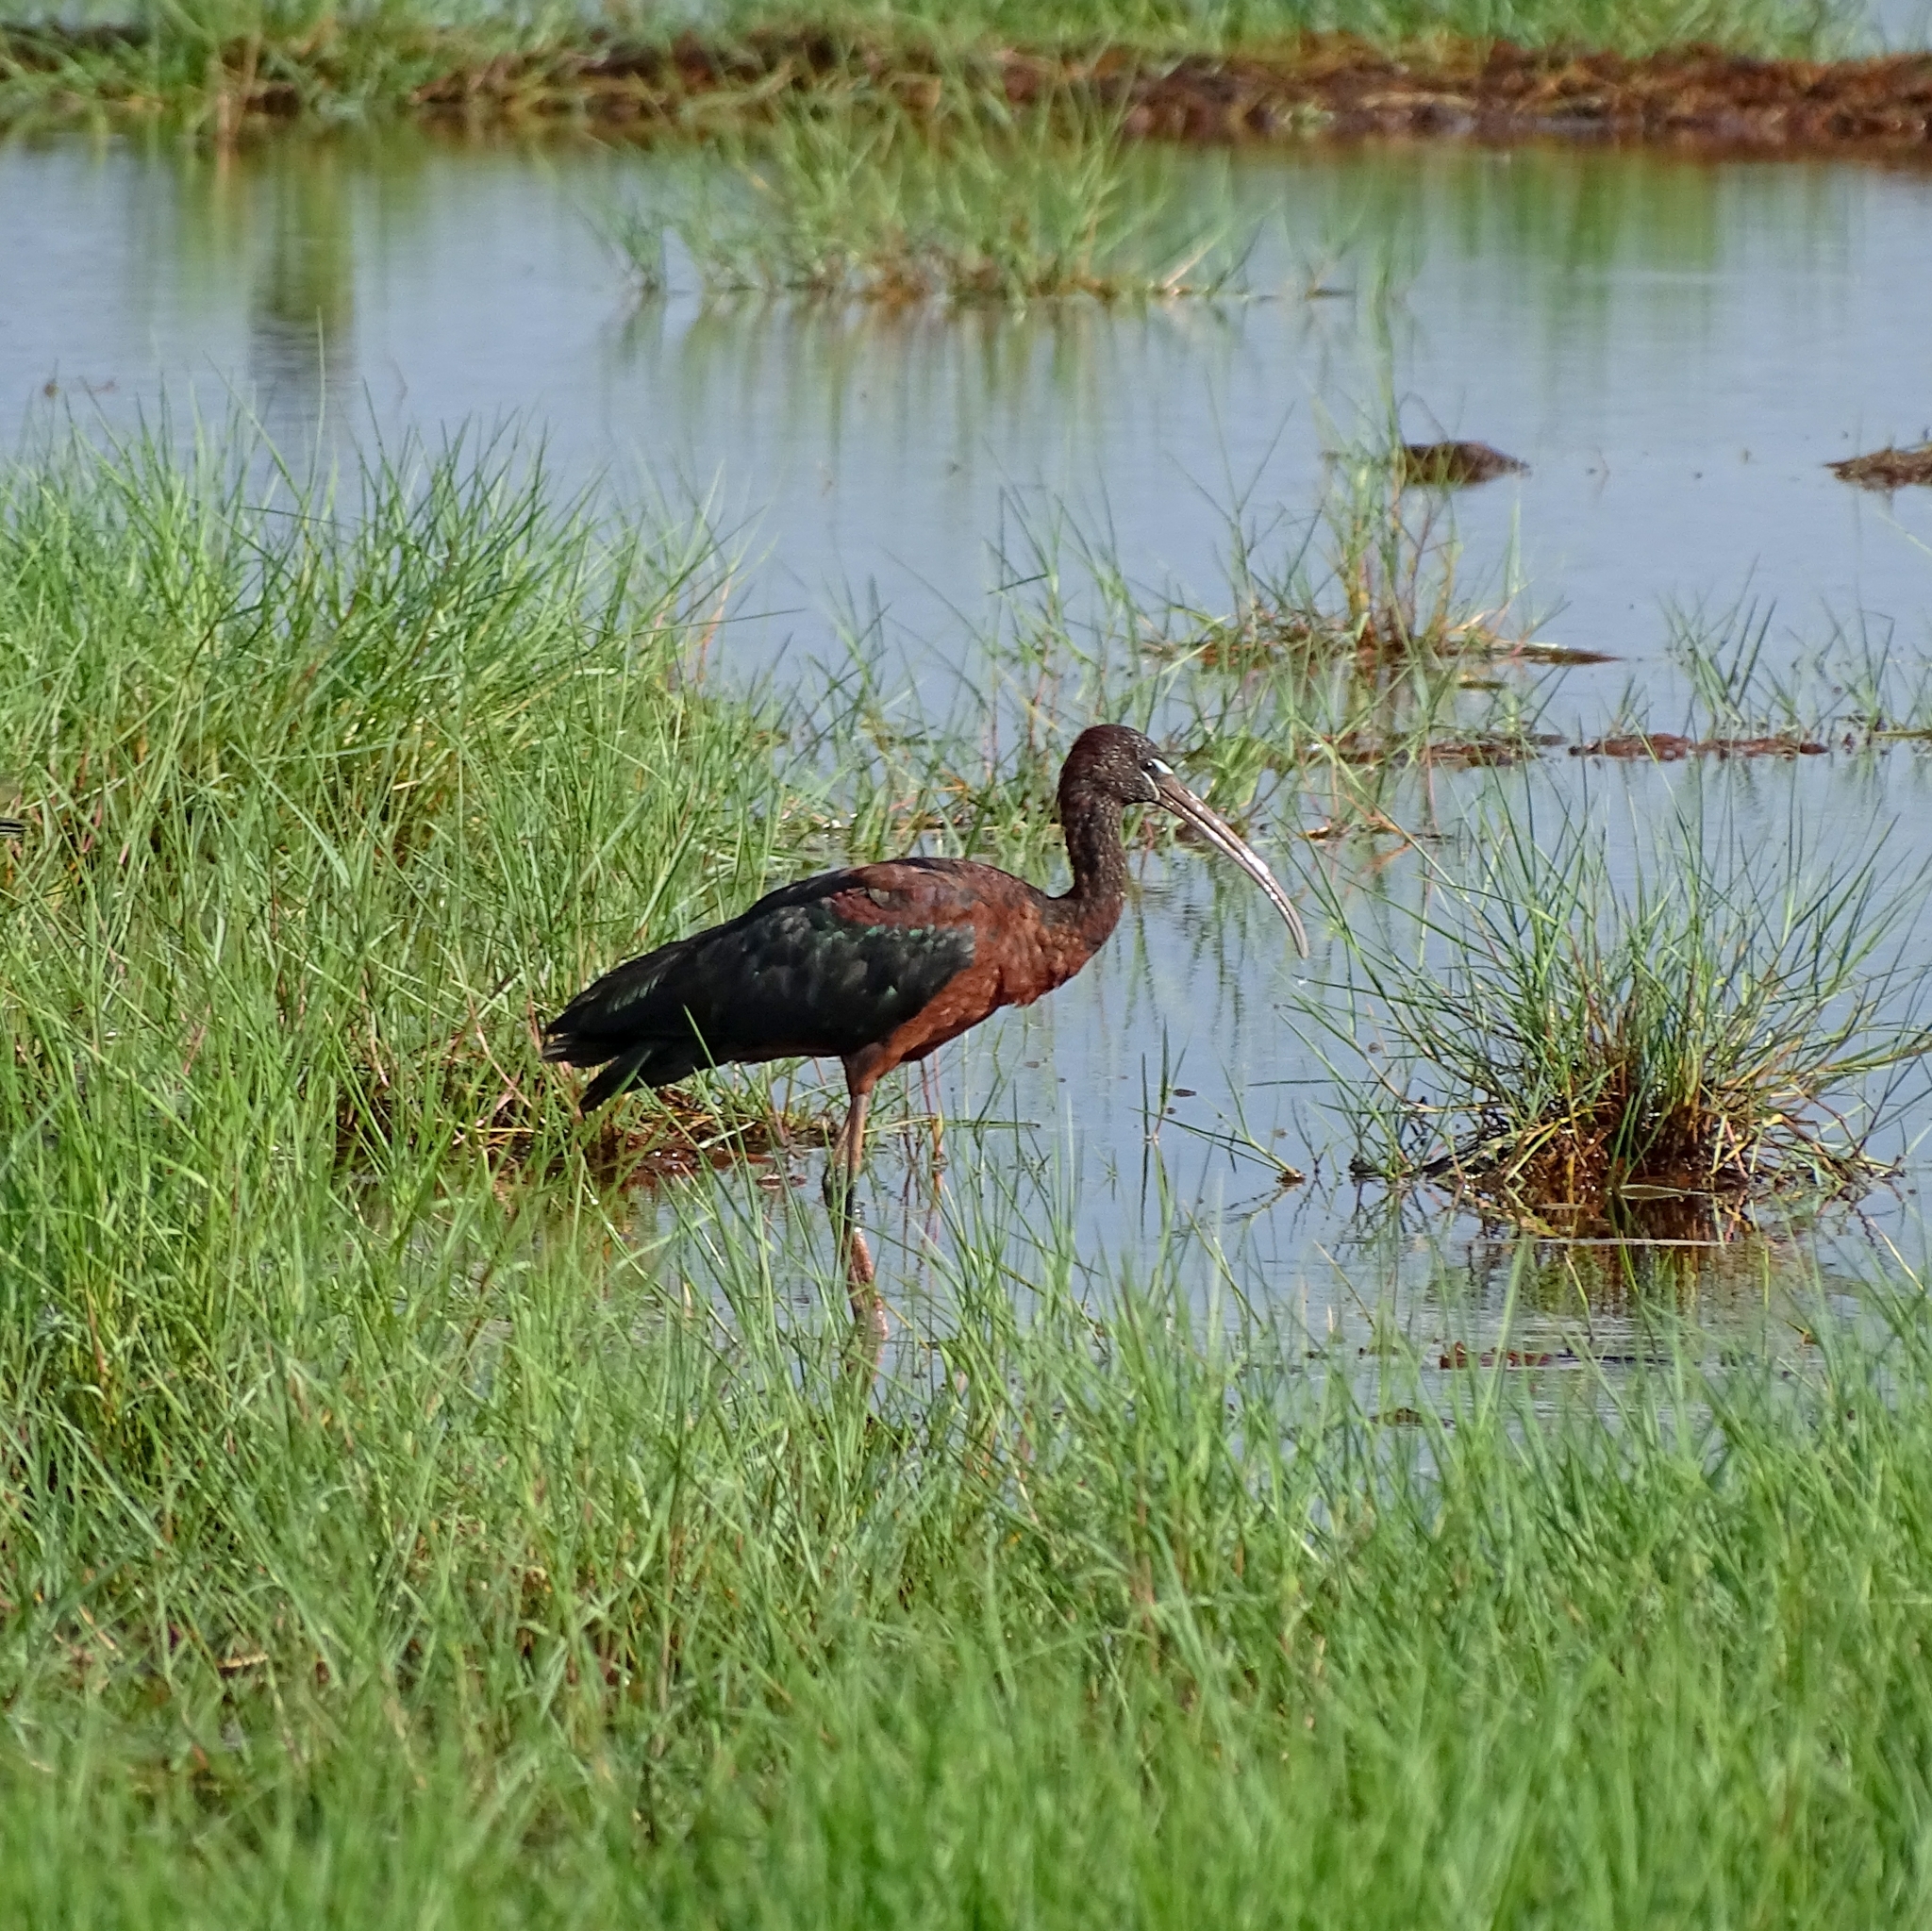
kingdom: Animalia
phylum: Chordata
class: Aves
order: Pelecaniformes
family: Threskiornithidae
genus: Plegadis
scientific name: Plegadis falcinellus
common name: Glossy ibis
